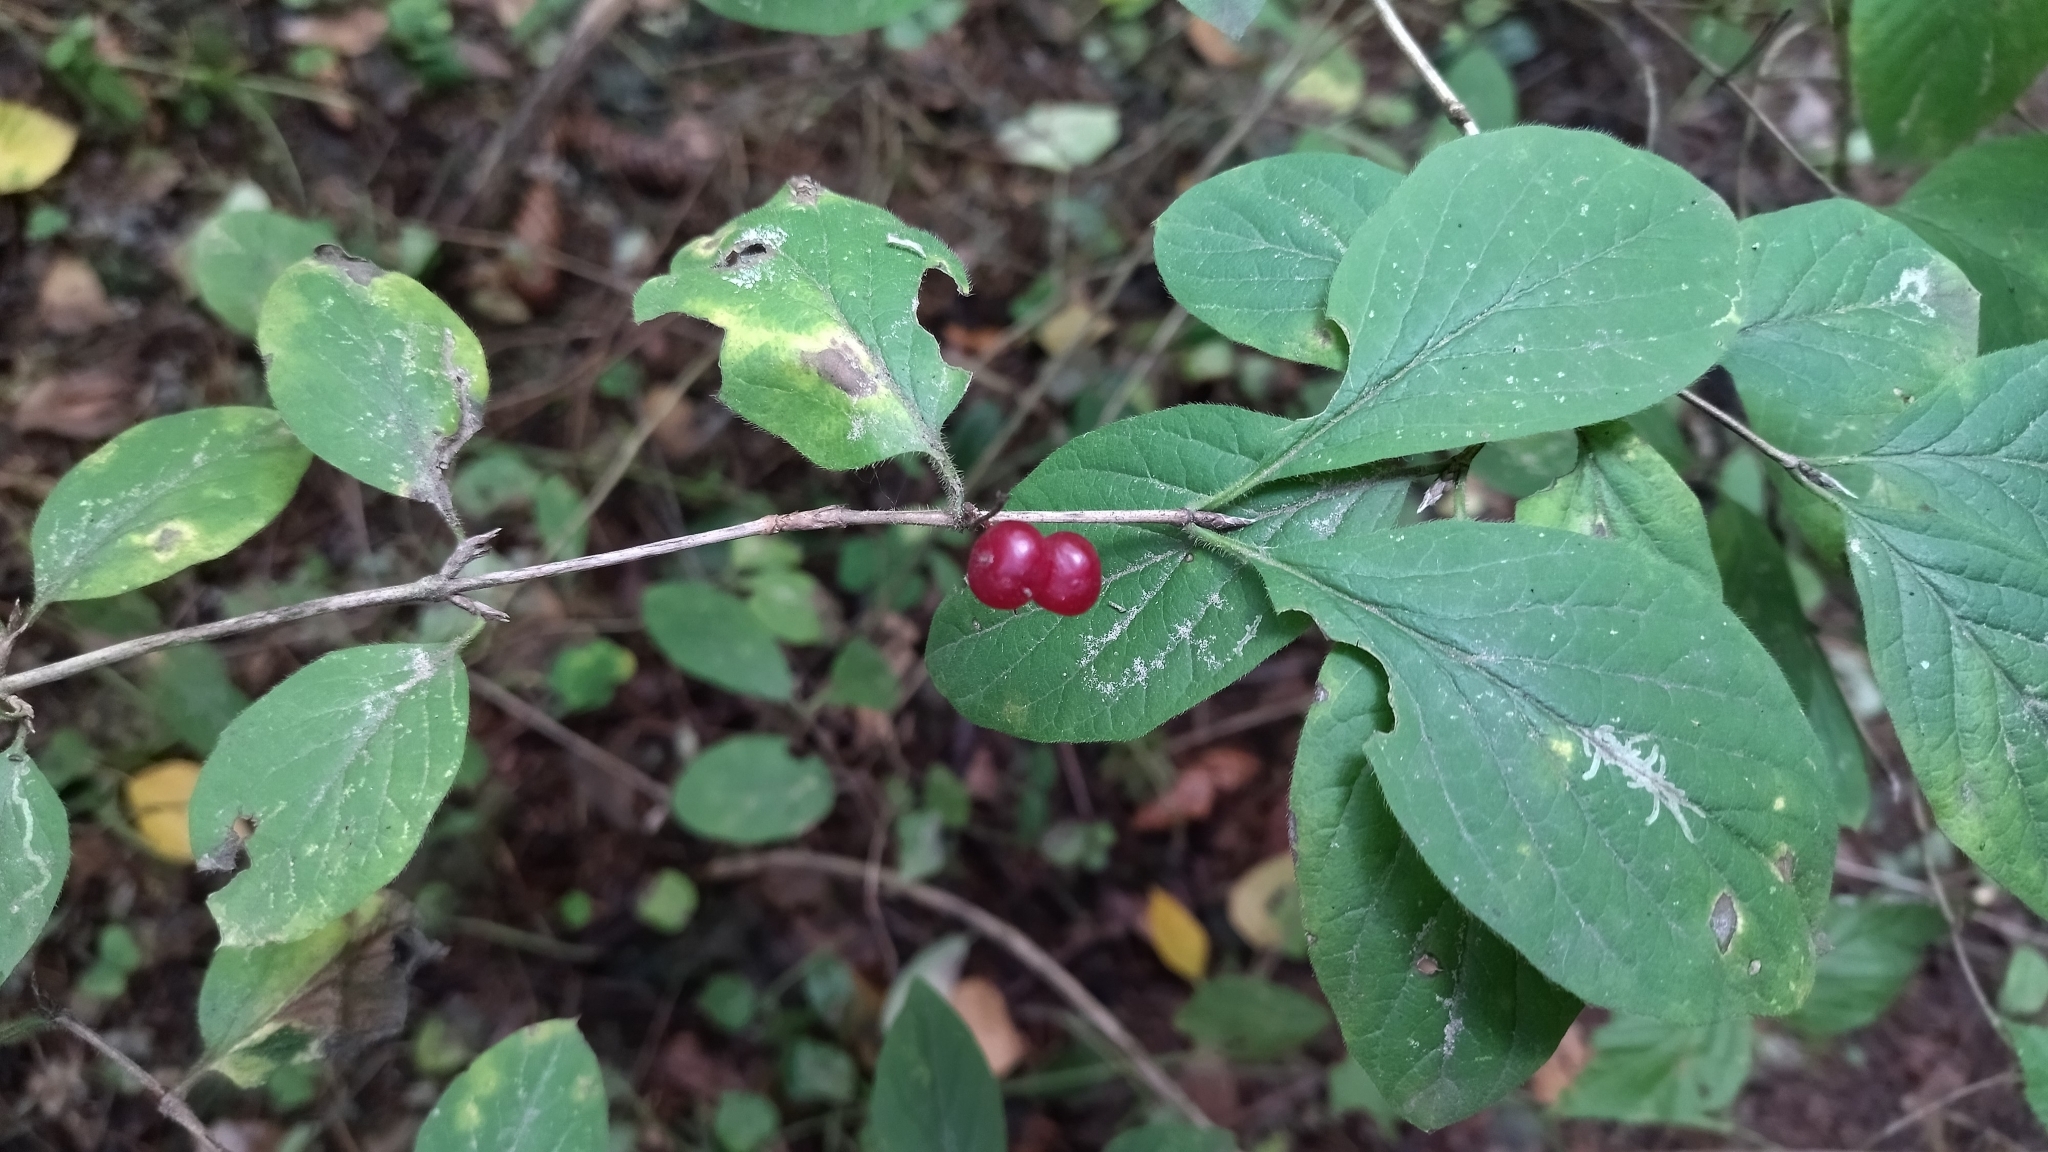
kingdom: Plantae
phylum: Tracheophyta
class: Magnoliopsida
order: Dipsacales
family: Caprifoliaceae
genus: Lonicera
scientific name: Lonicera xylosteum
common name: Fly honeysuckle
